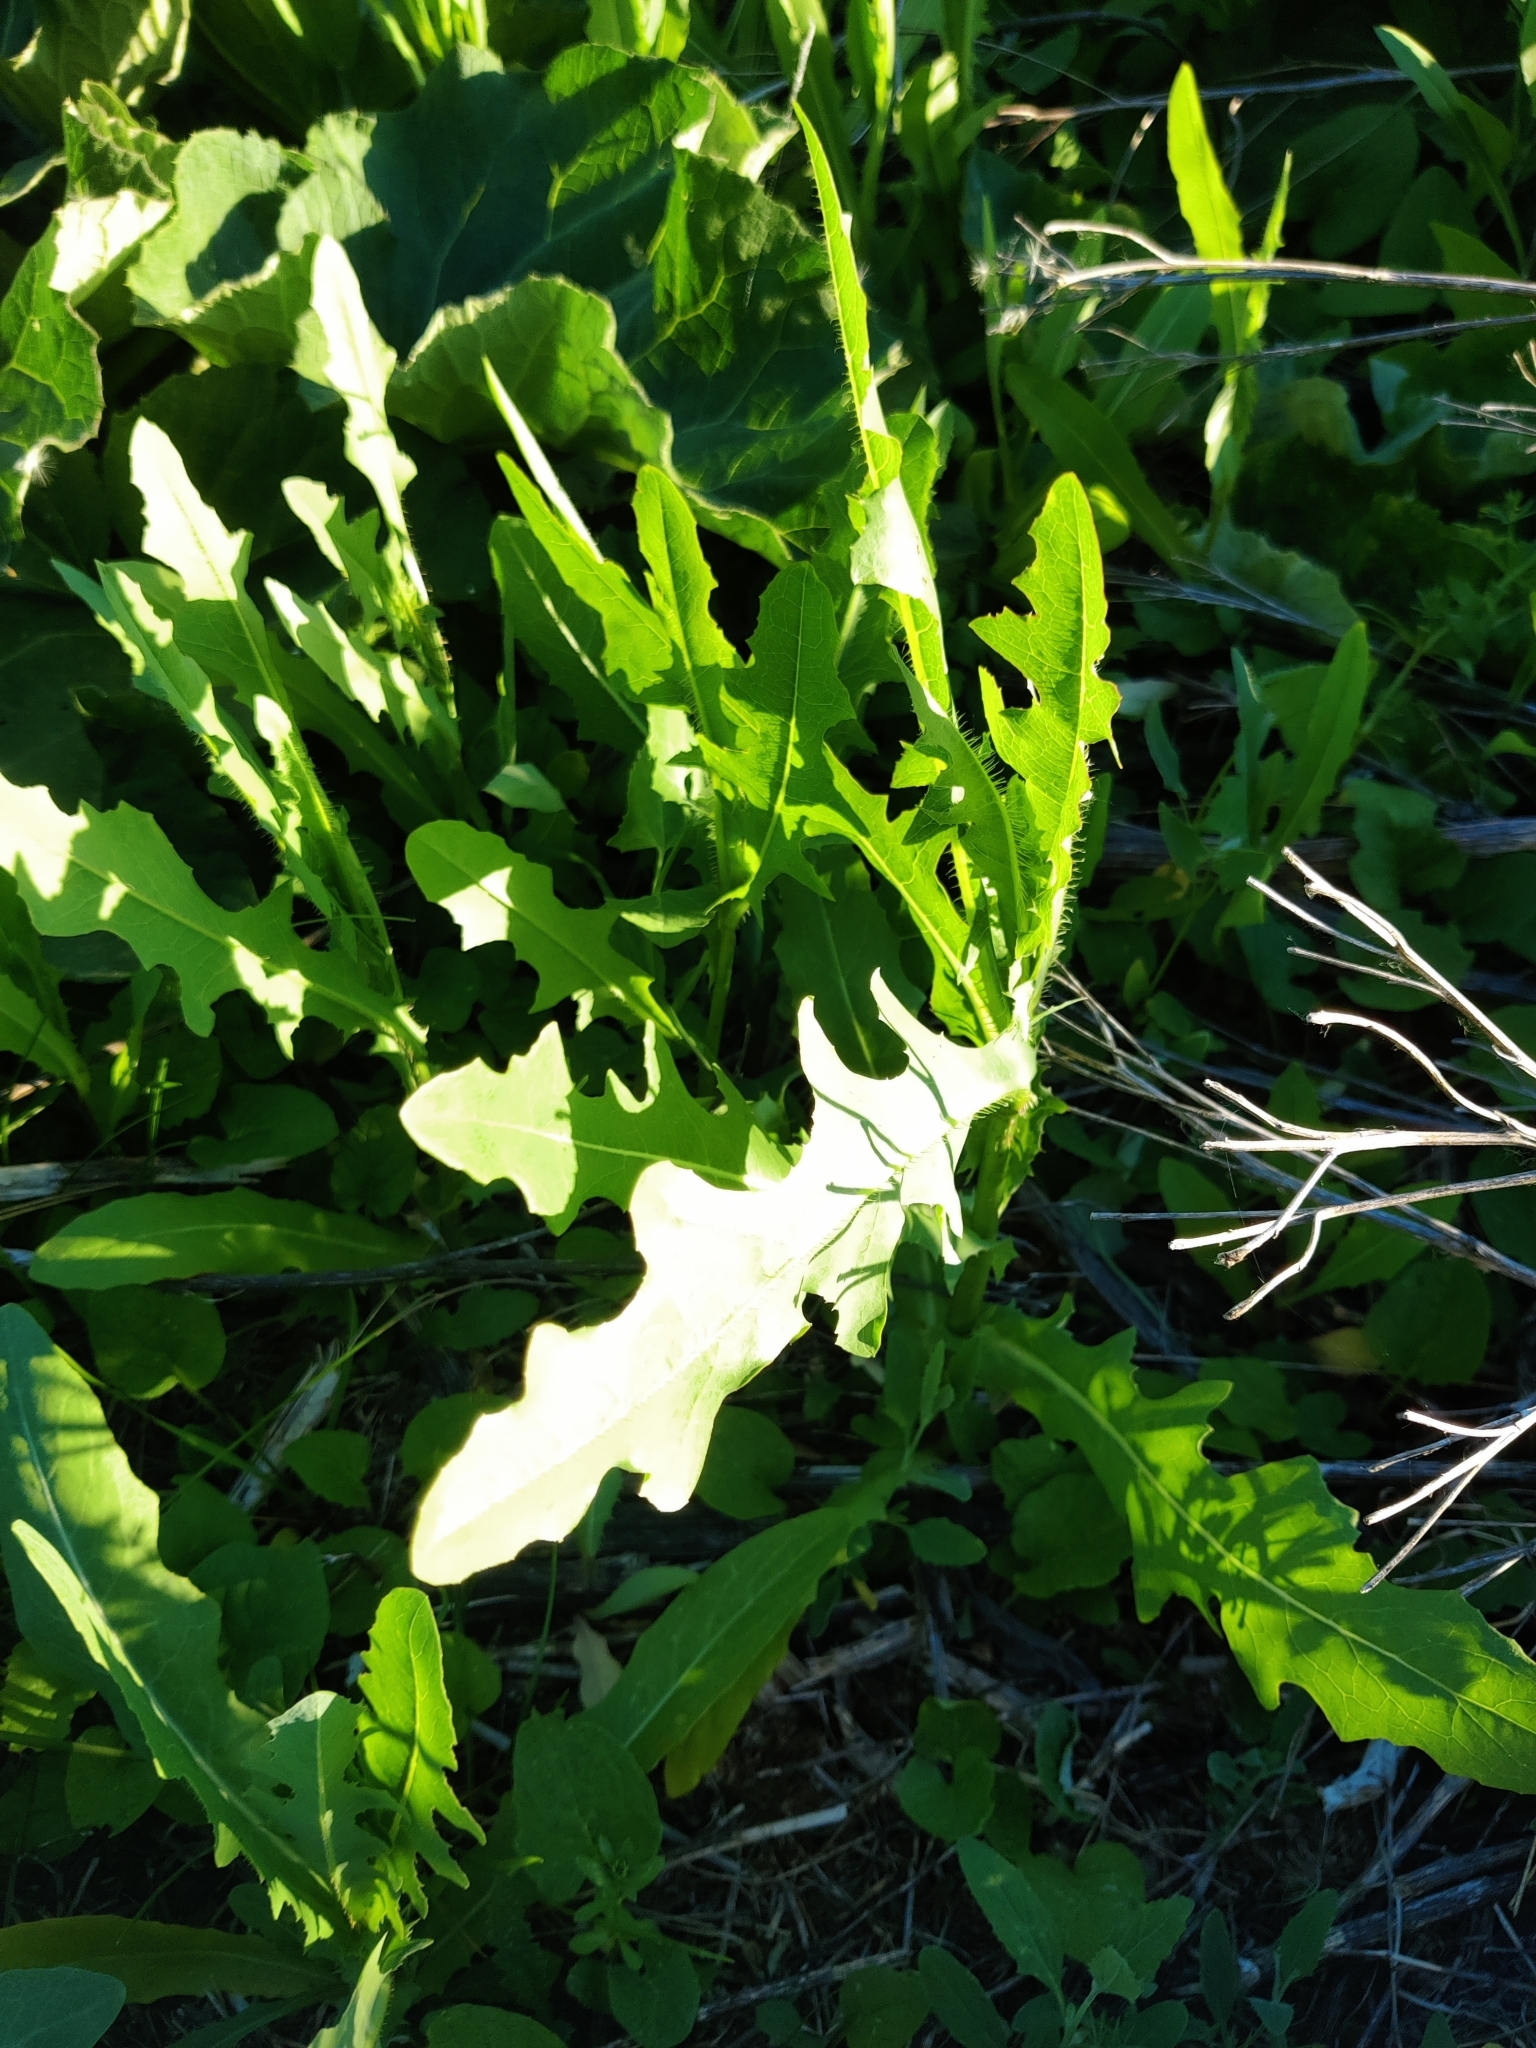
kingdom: Plantae
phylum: Tracheophyta
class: Magnoliopsida
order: Asterales
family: Asteraceae
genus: Lactuca
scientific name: Lactuca serriola
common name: Prickly lettuce
